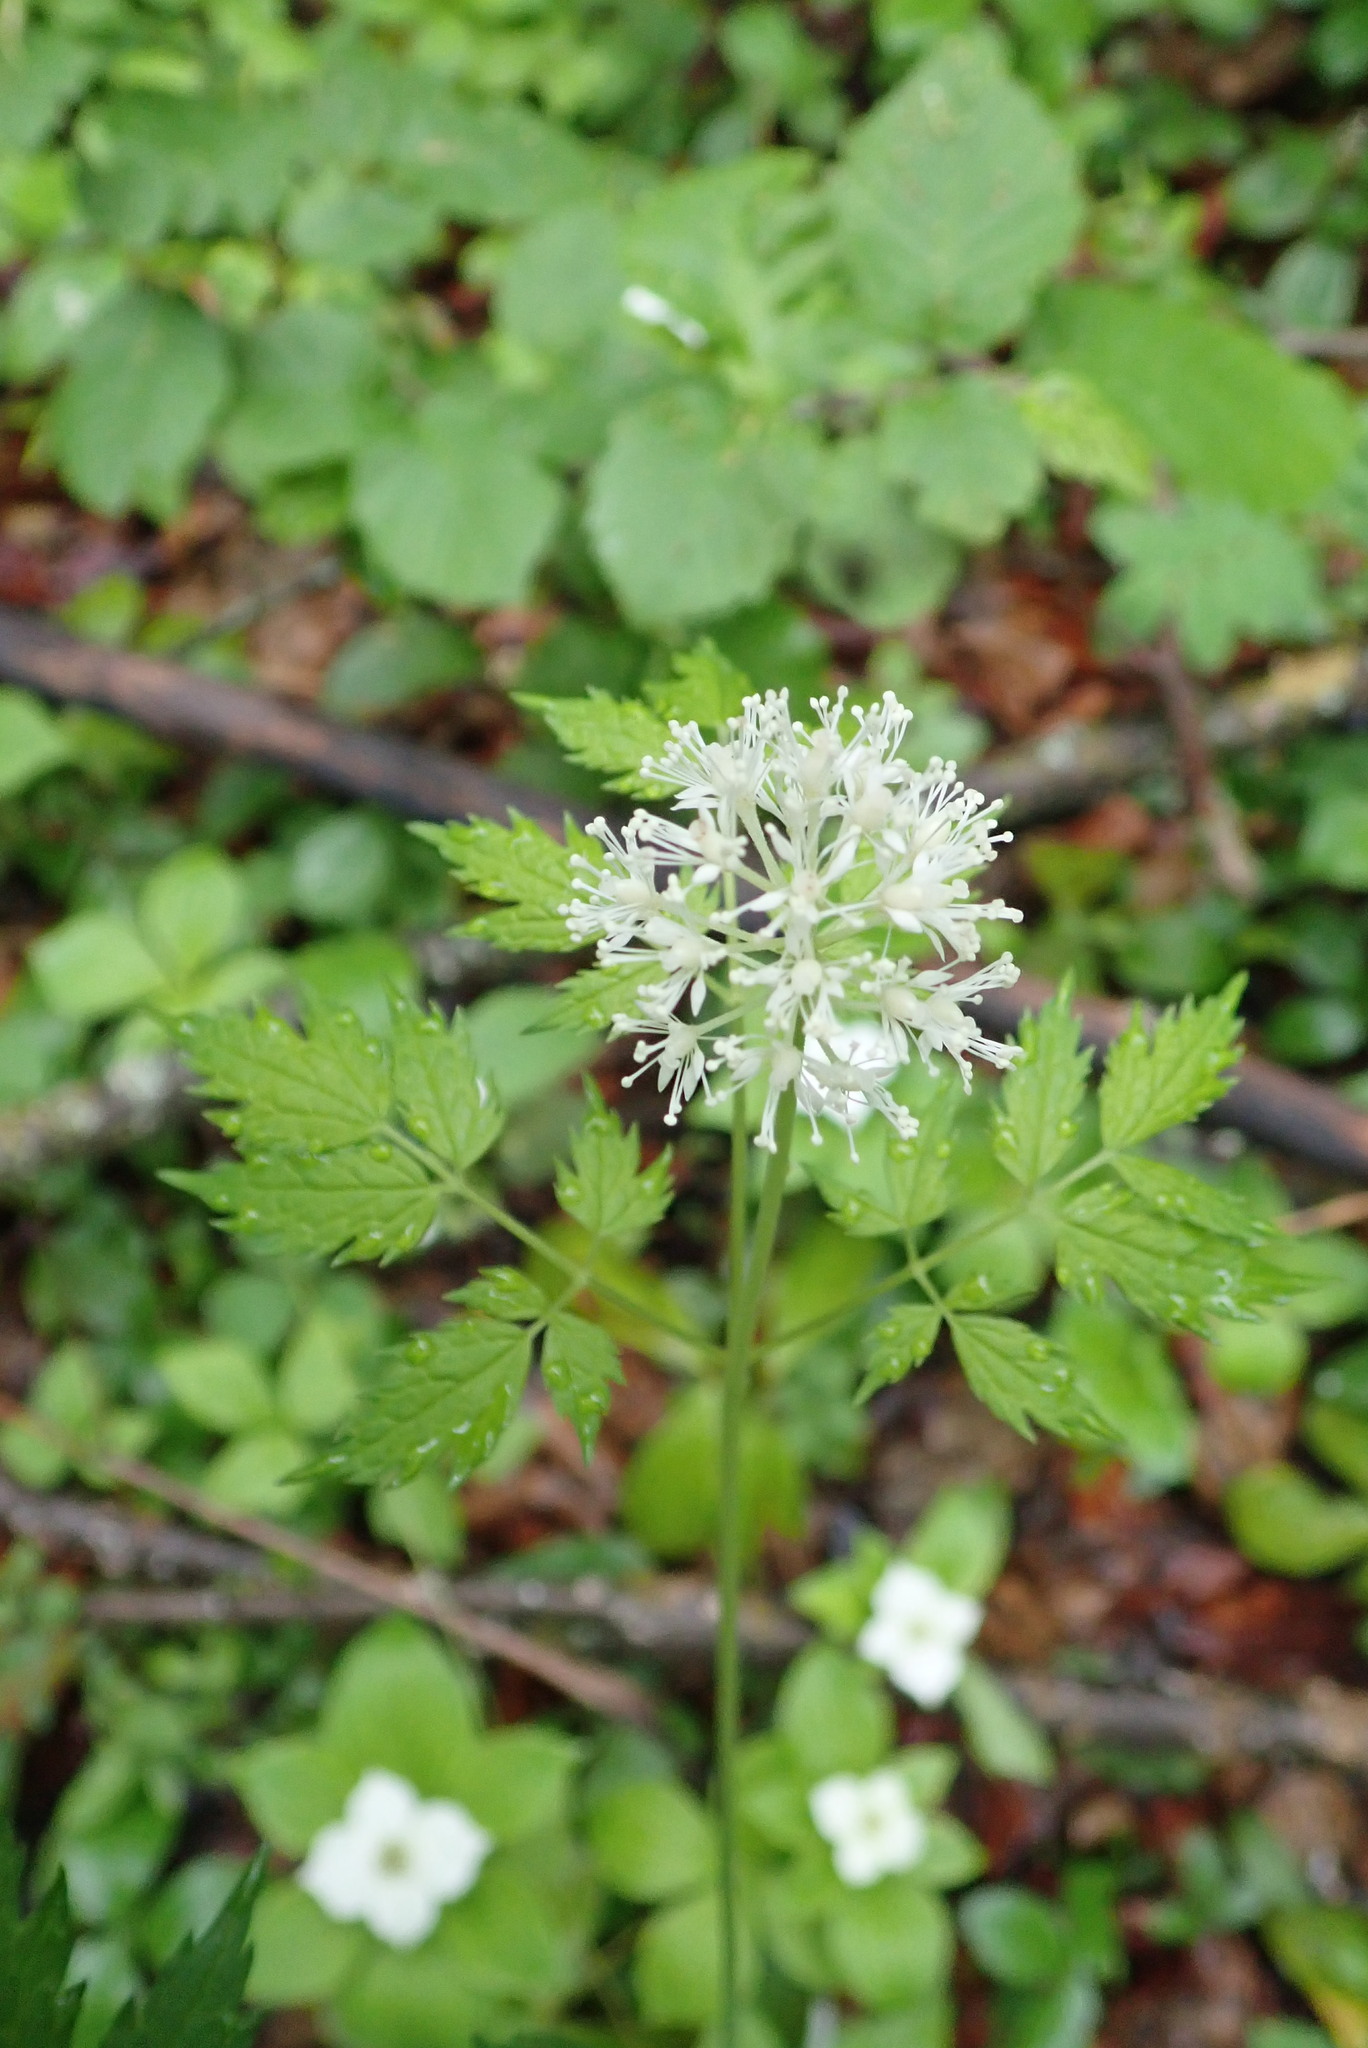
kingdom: Plantae
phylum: Tracheophyta
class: Magnoliopsida
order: Ranunculales
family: Ranunculaceae
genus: Actaea
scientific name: Actaea rubra
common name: Red baneberry
